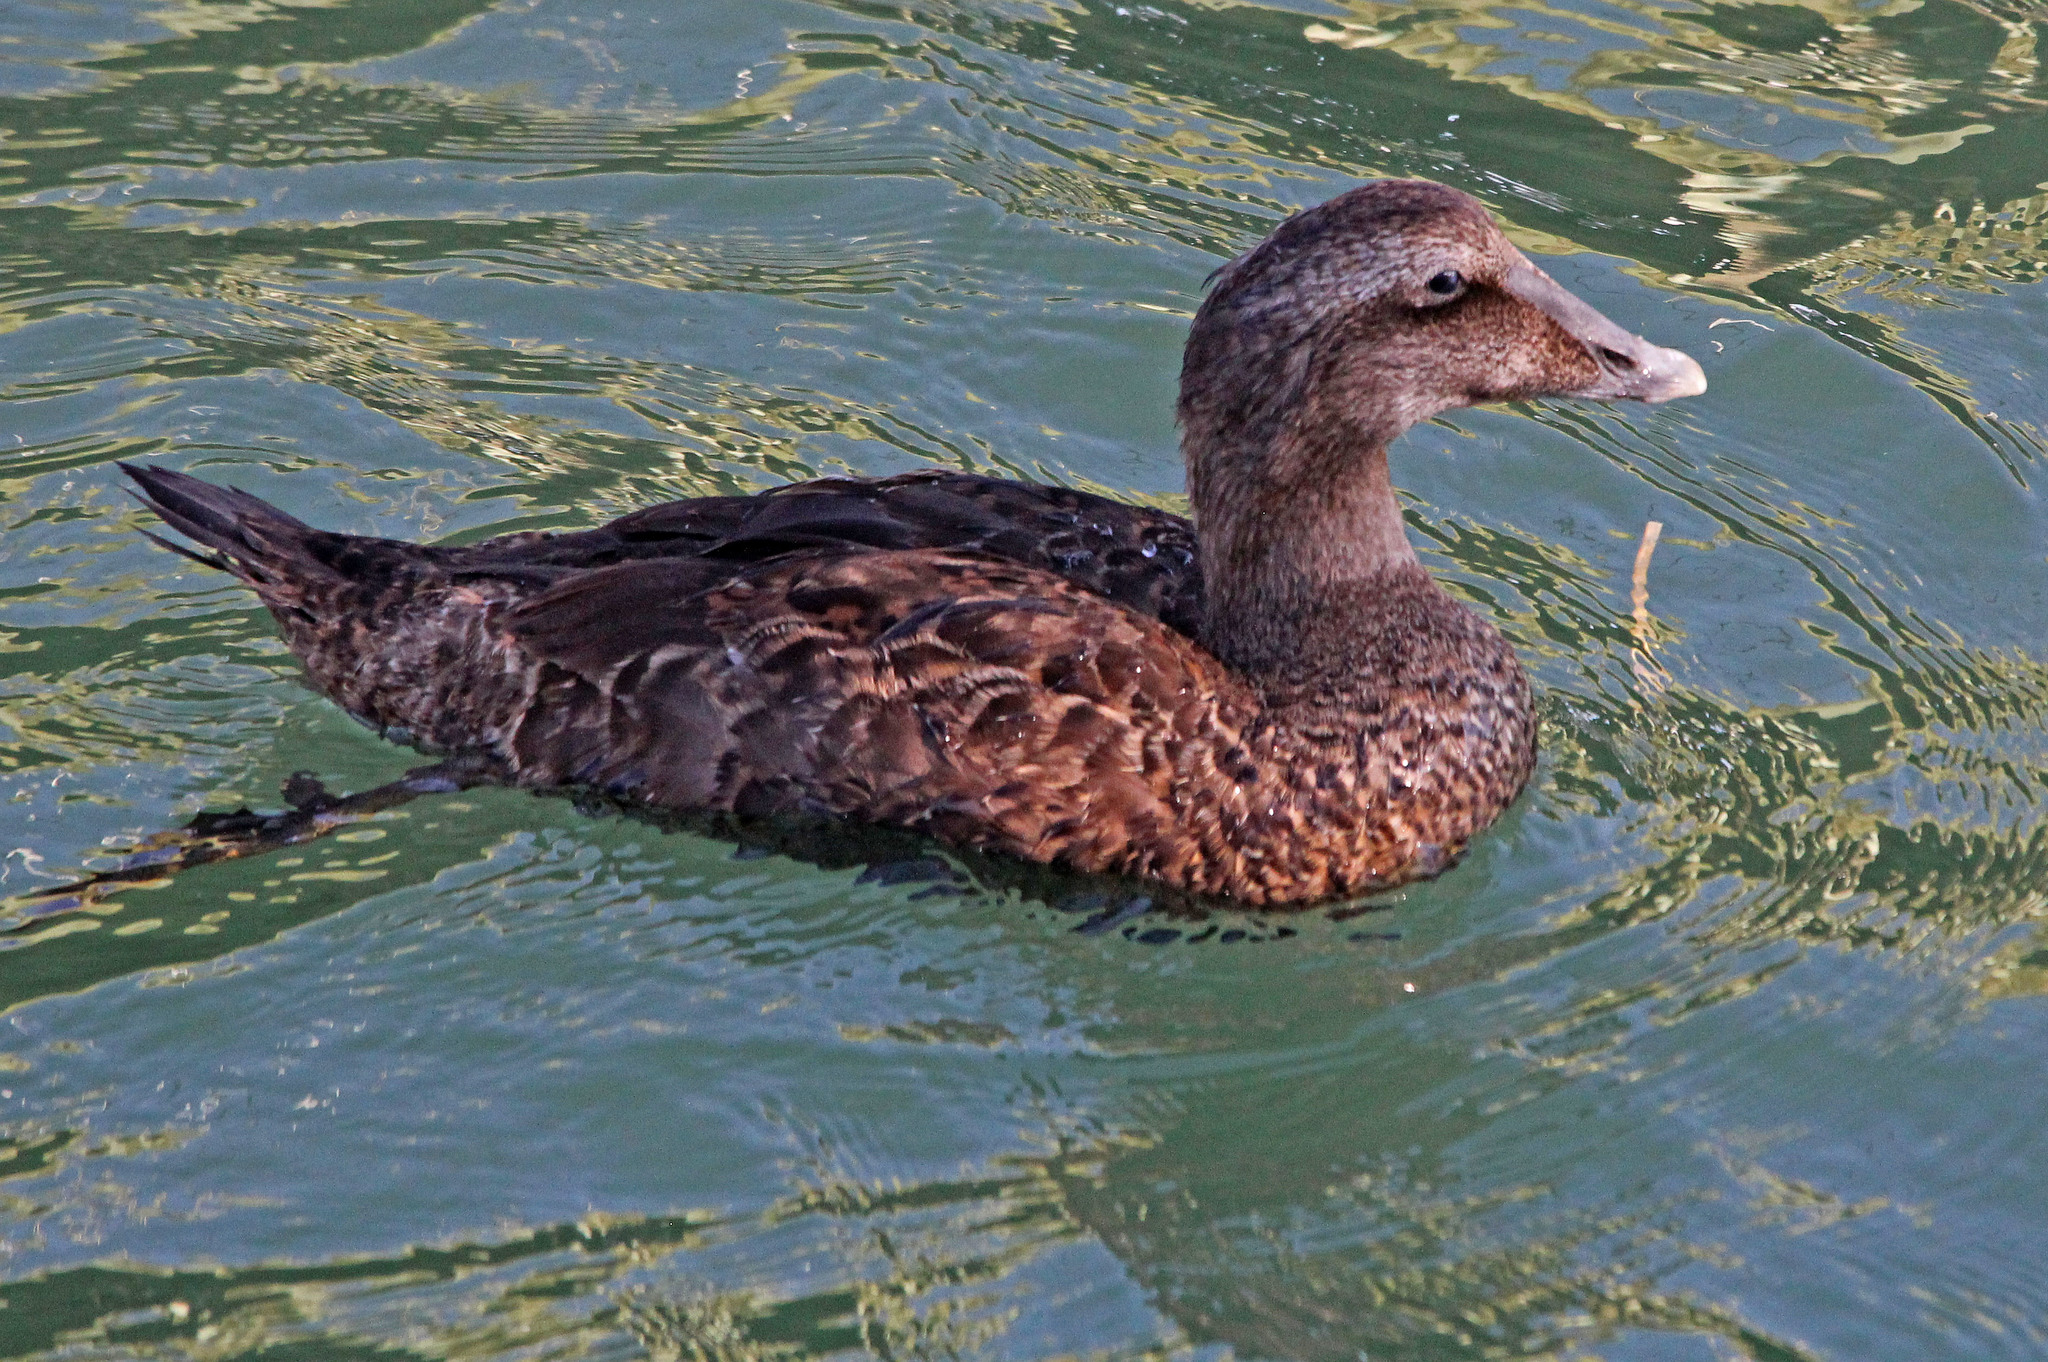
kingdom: Animalia
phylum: Chordata
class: Aves
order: Anseriformes
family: Anatidae
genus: Somateria
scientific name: Somateria mollissima
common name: Common eider
